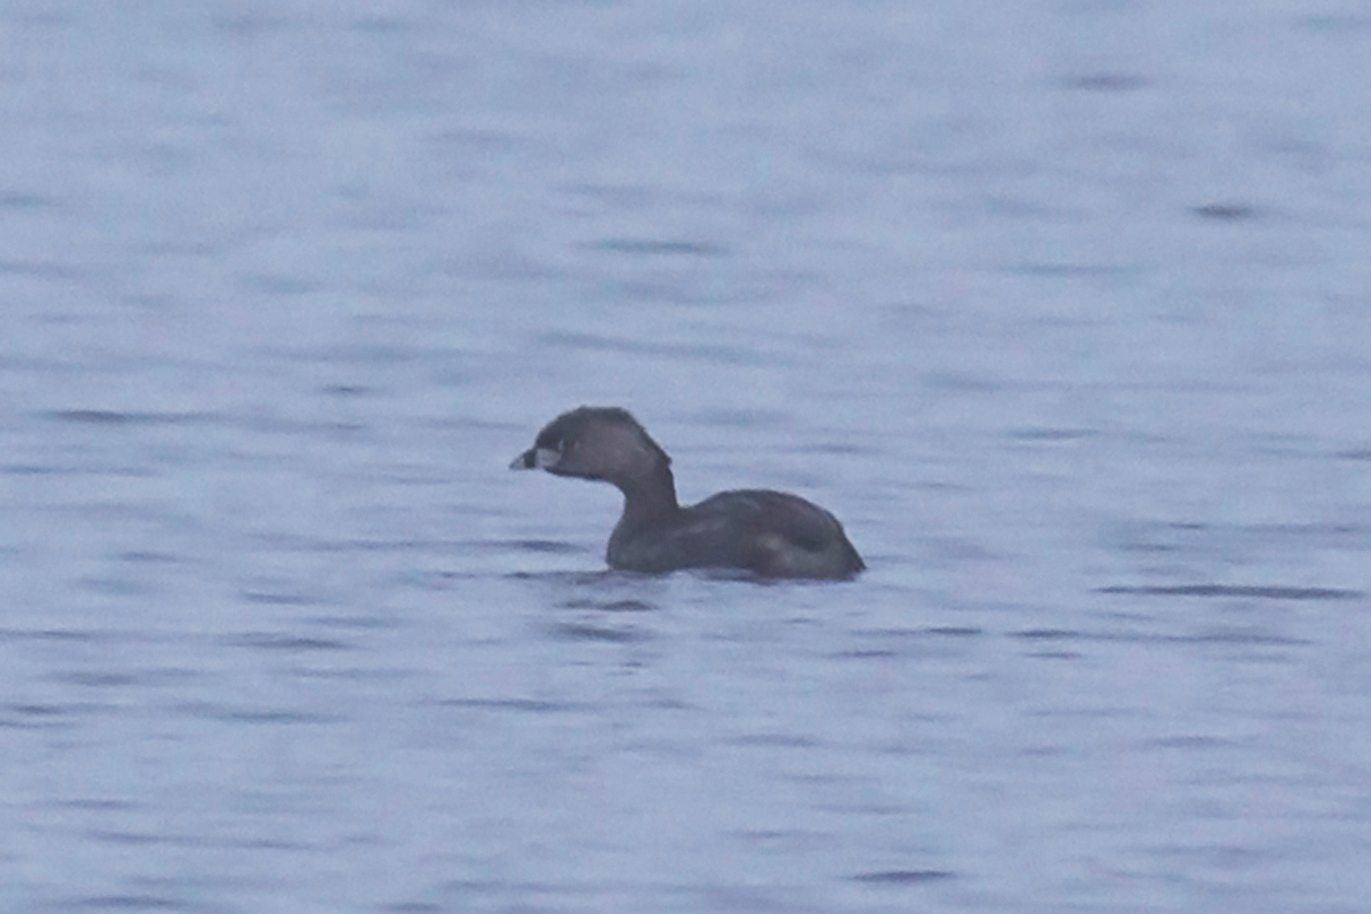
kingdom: Animalia
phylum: Chordata
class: Aves
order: Podicipediformes
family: Podicipedidae
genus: Podilymbus
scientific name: Podilymbus podiceps
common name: Pied-billed grebe
